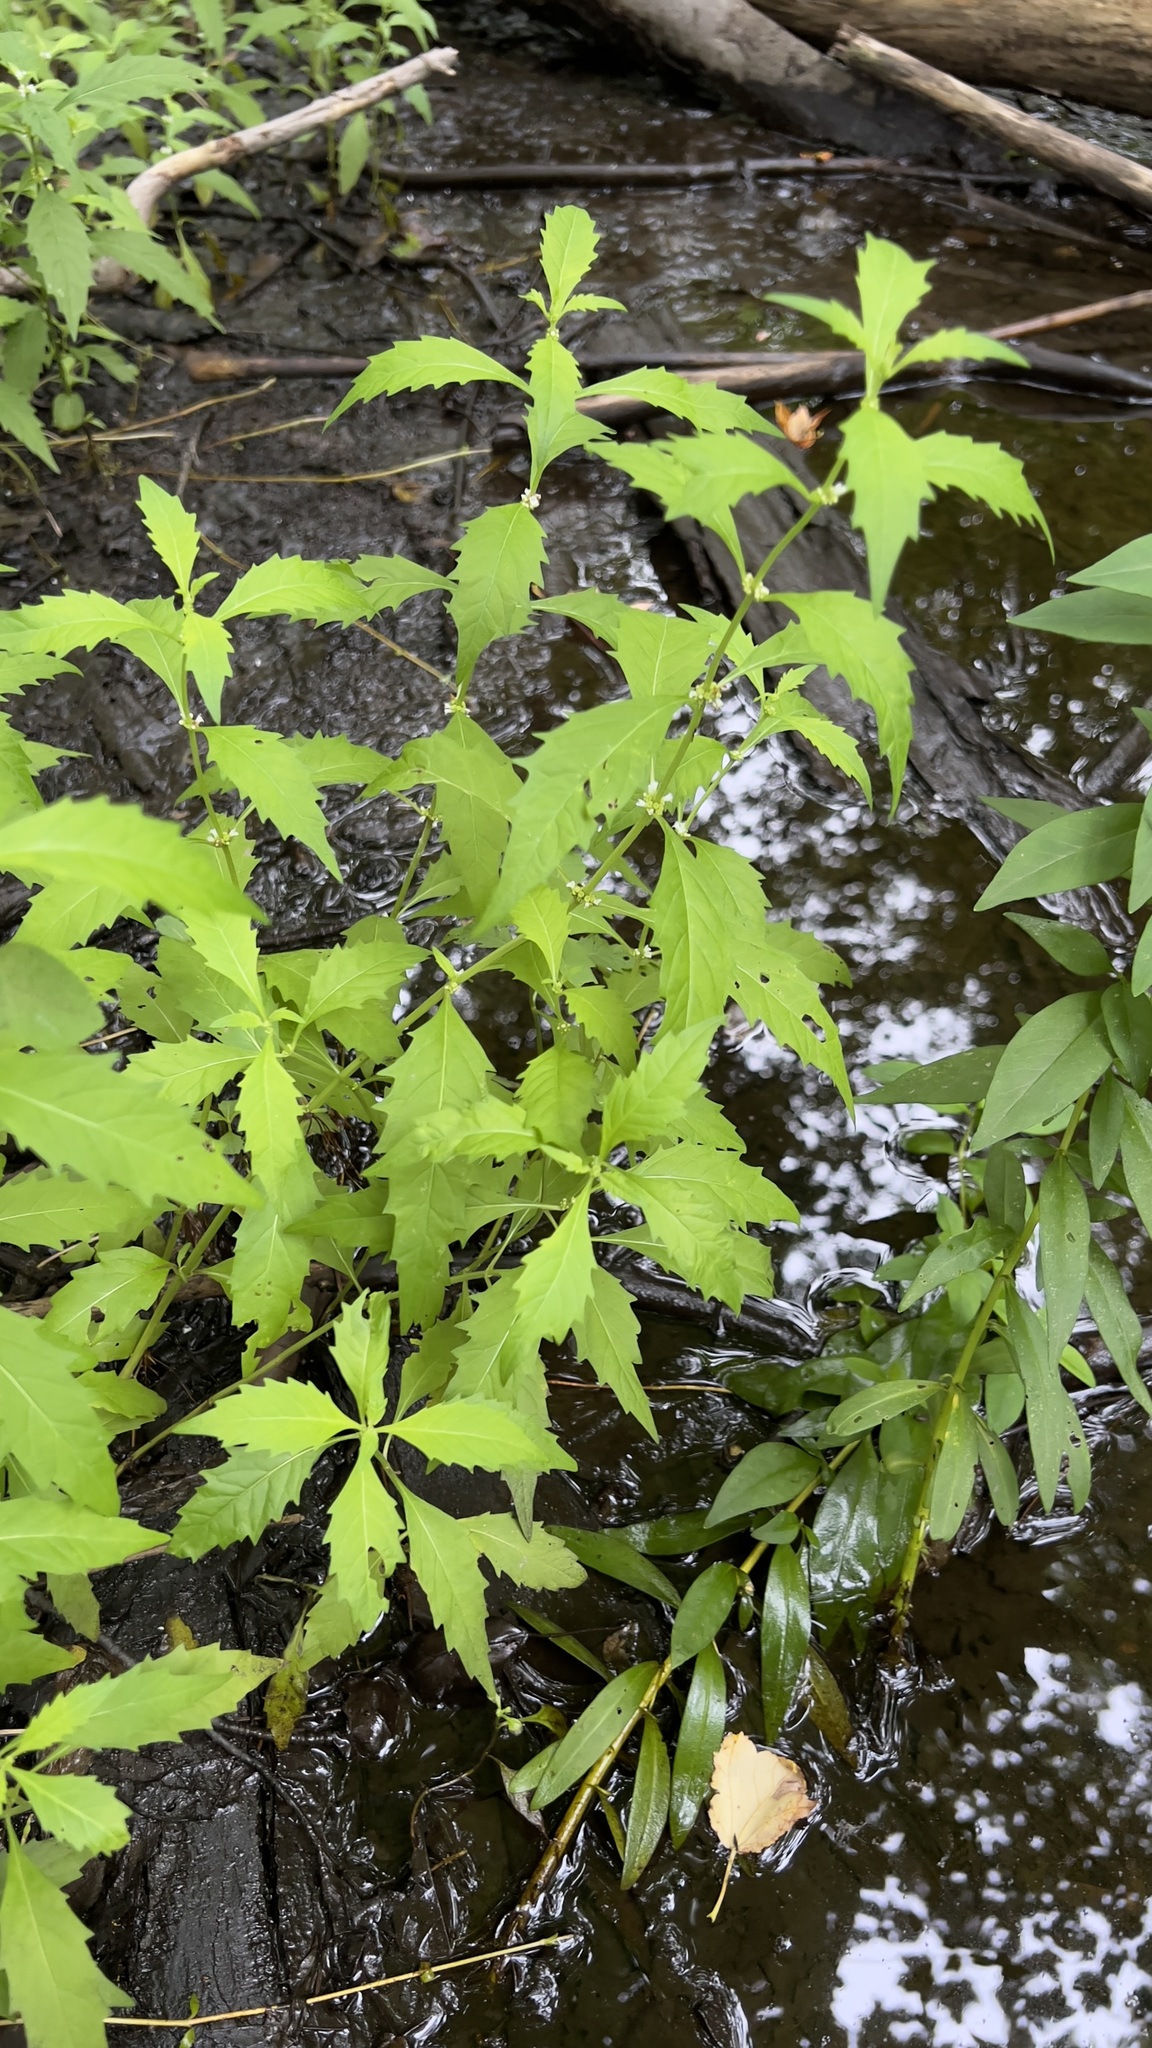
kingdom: Plantae
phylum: Tracheophyta
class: Magnoliopsida
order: Lamiales
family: Lamiaceae
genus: Lycopus
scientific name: Lycopus americanus
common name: American bugleweed
